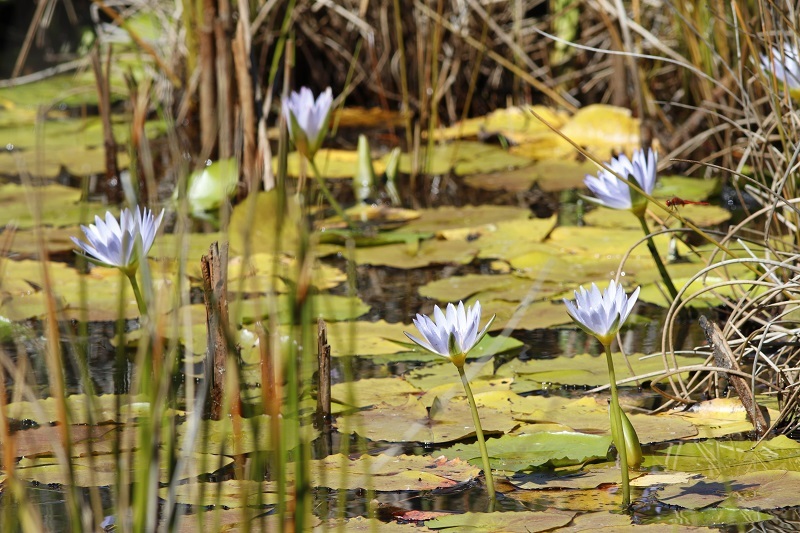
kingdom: Plantae
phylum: Tracheophyta
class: Magnoliopsida
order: Nymphaeales
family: Nymphaeaceae
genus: Nymphaea
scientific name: Nymphaea nouchali
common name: Blue lotus
